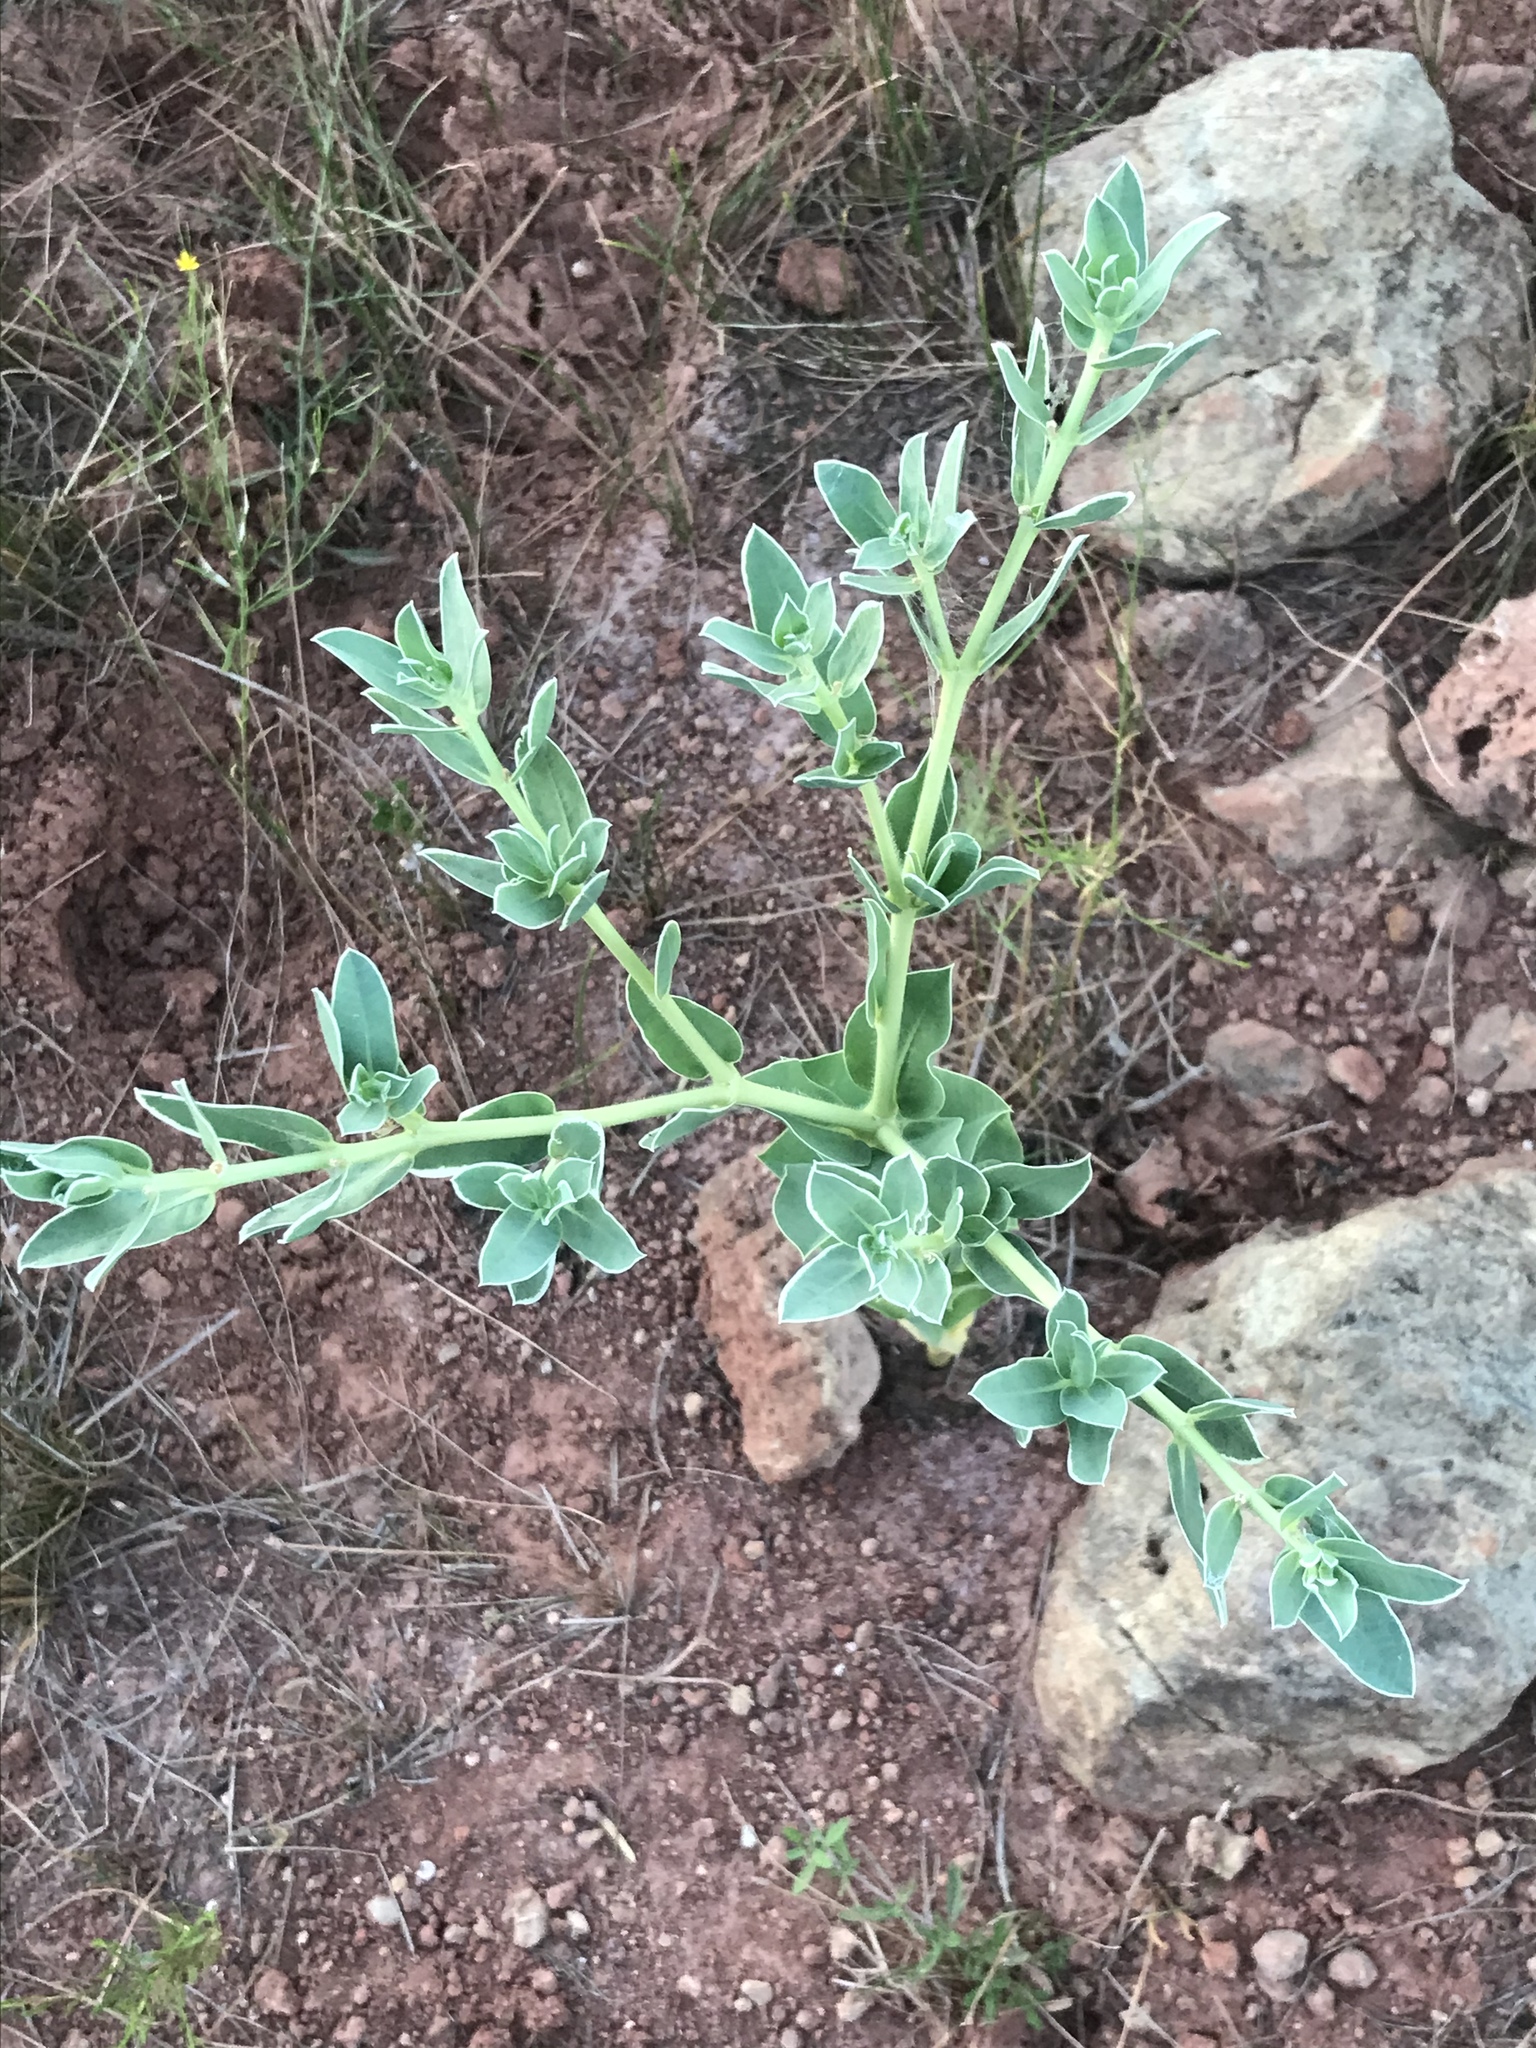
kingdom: Plantae
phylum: Tracheophyta
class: Magnoliopsida
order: Malpighiales
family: Euphorbiaceae
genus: Euphorbia
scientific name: Euphorbia marginata
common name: Ghostweed
